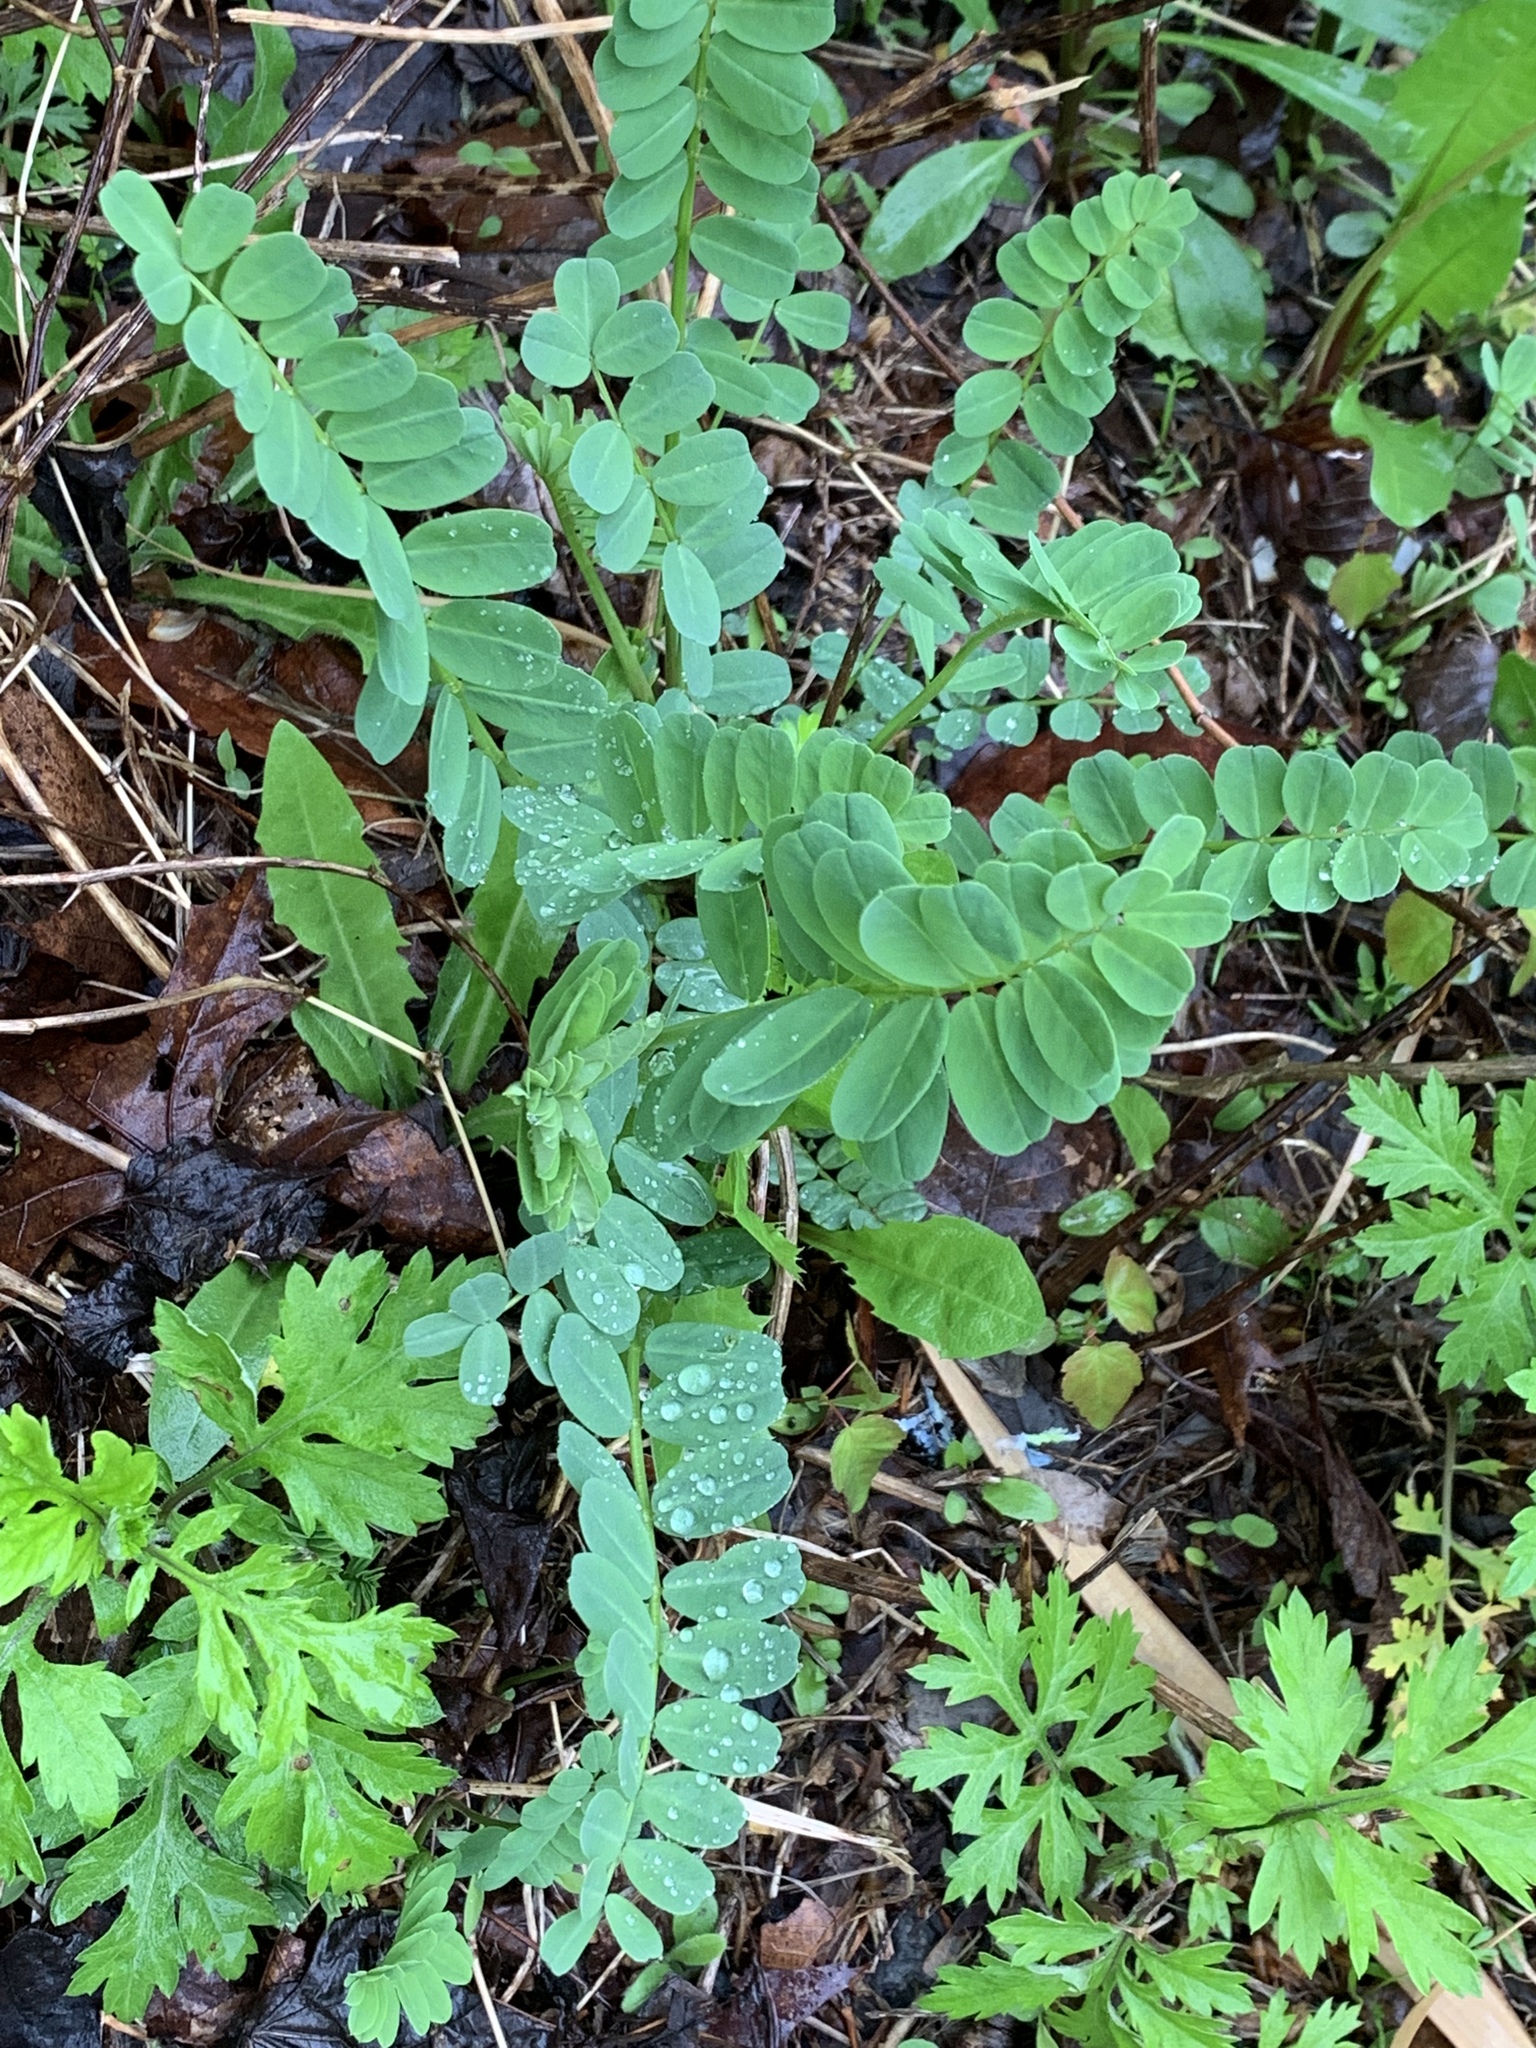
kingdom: Plantae
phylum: Tracheophyta
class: Magnoliopsida
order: Fabales
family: Fabaceae
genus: Coronilla
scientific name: Coronilla varia
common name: Crownvetch
